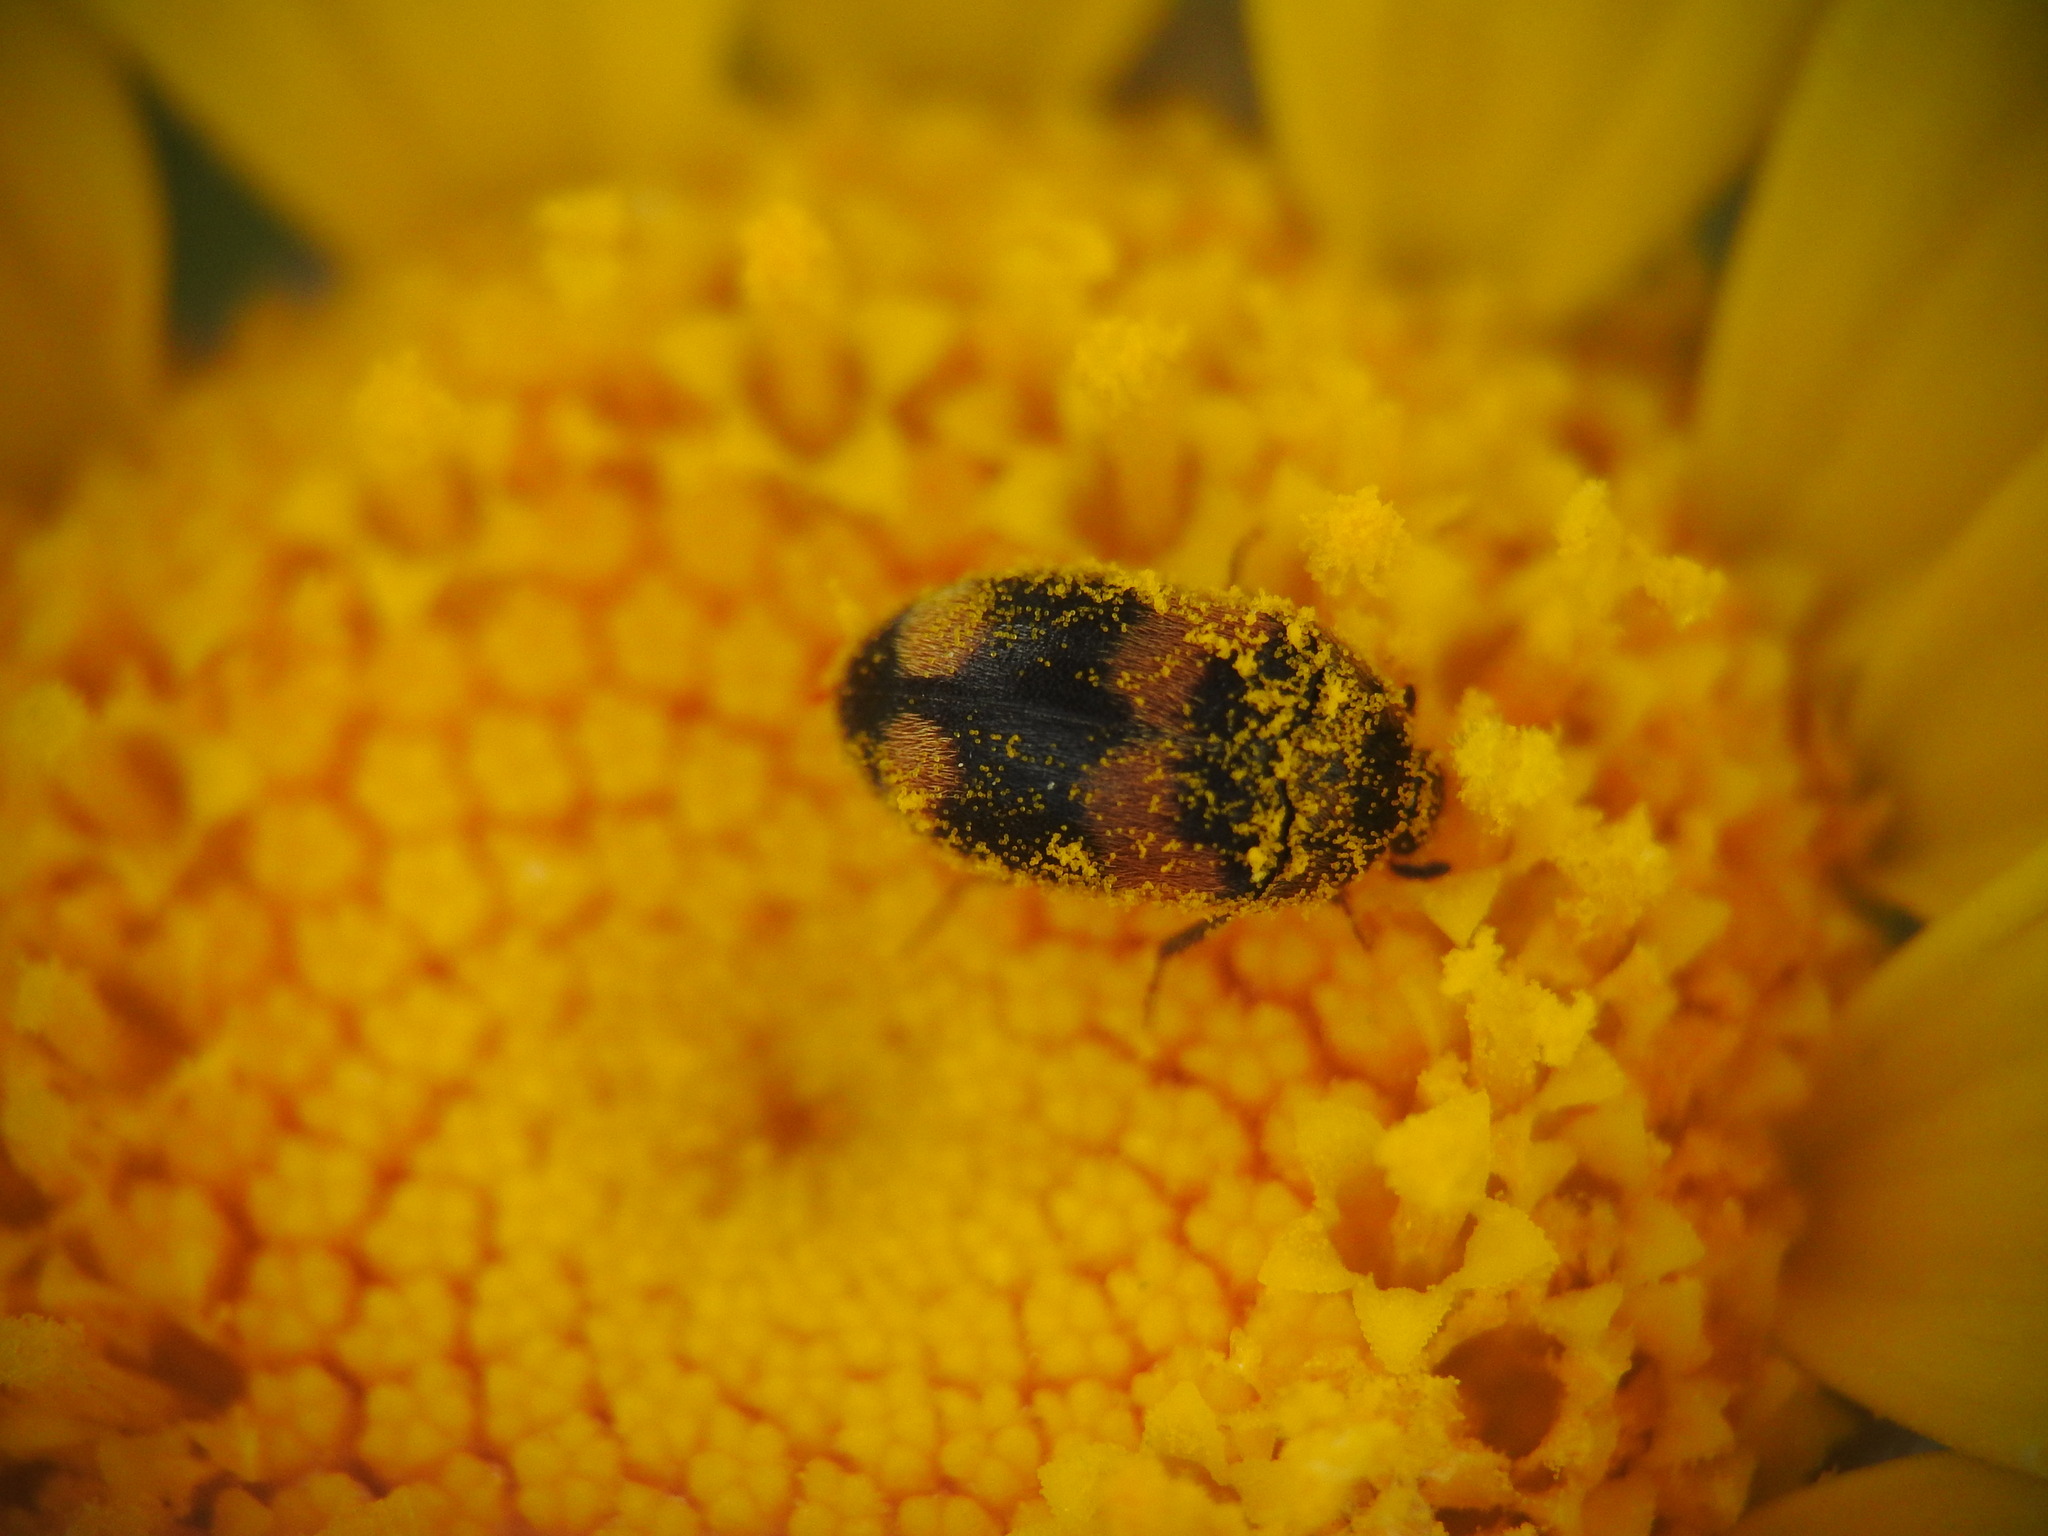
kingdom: Animalia
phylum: Arthropoda
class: Insecta
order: Coleoptera
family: Dermestidae
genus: Attagenus
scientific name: Attagenus quadrimaculatus
